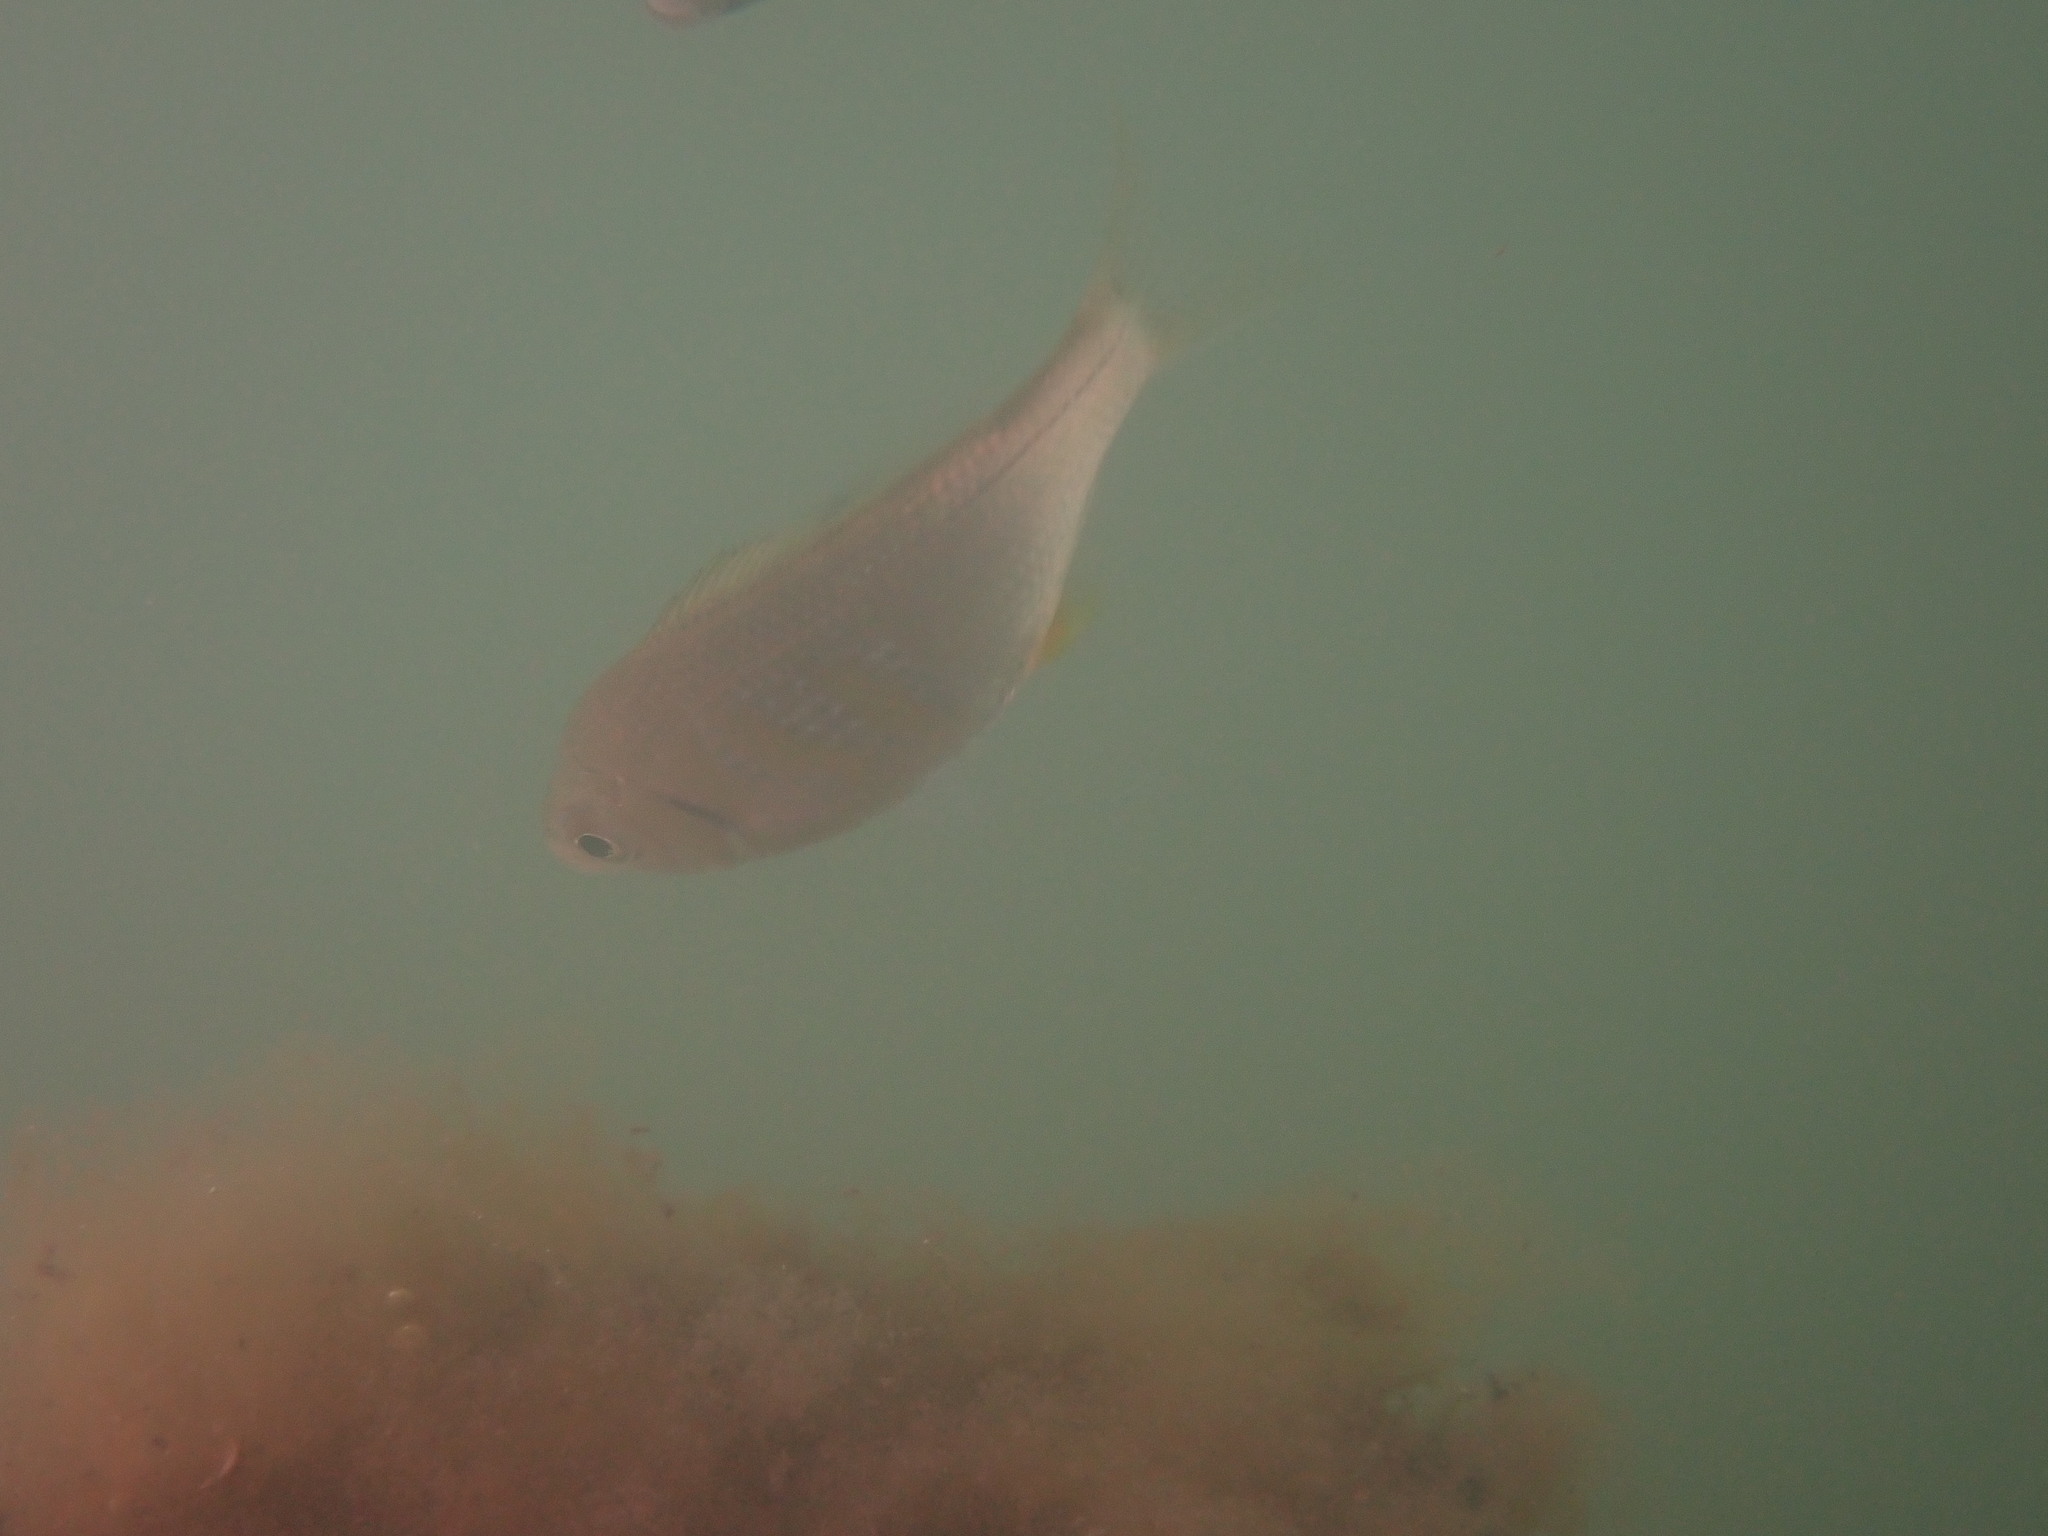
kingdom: Animalia
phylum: Chordata
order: Perciformes
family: Embiotocidae
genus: Cymatogaster
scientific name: Cymatogaster aggregata
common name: Shiner perch
